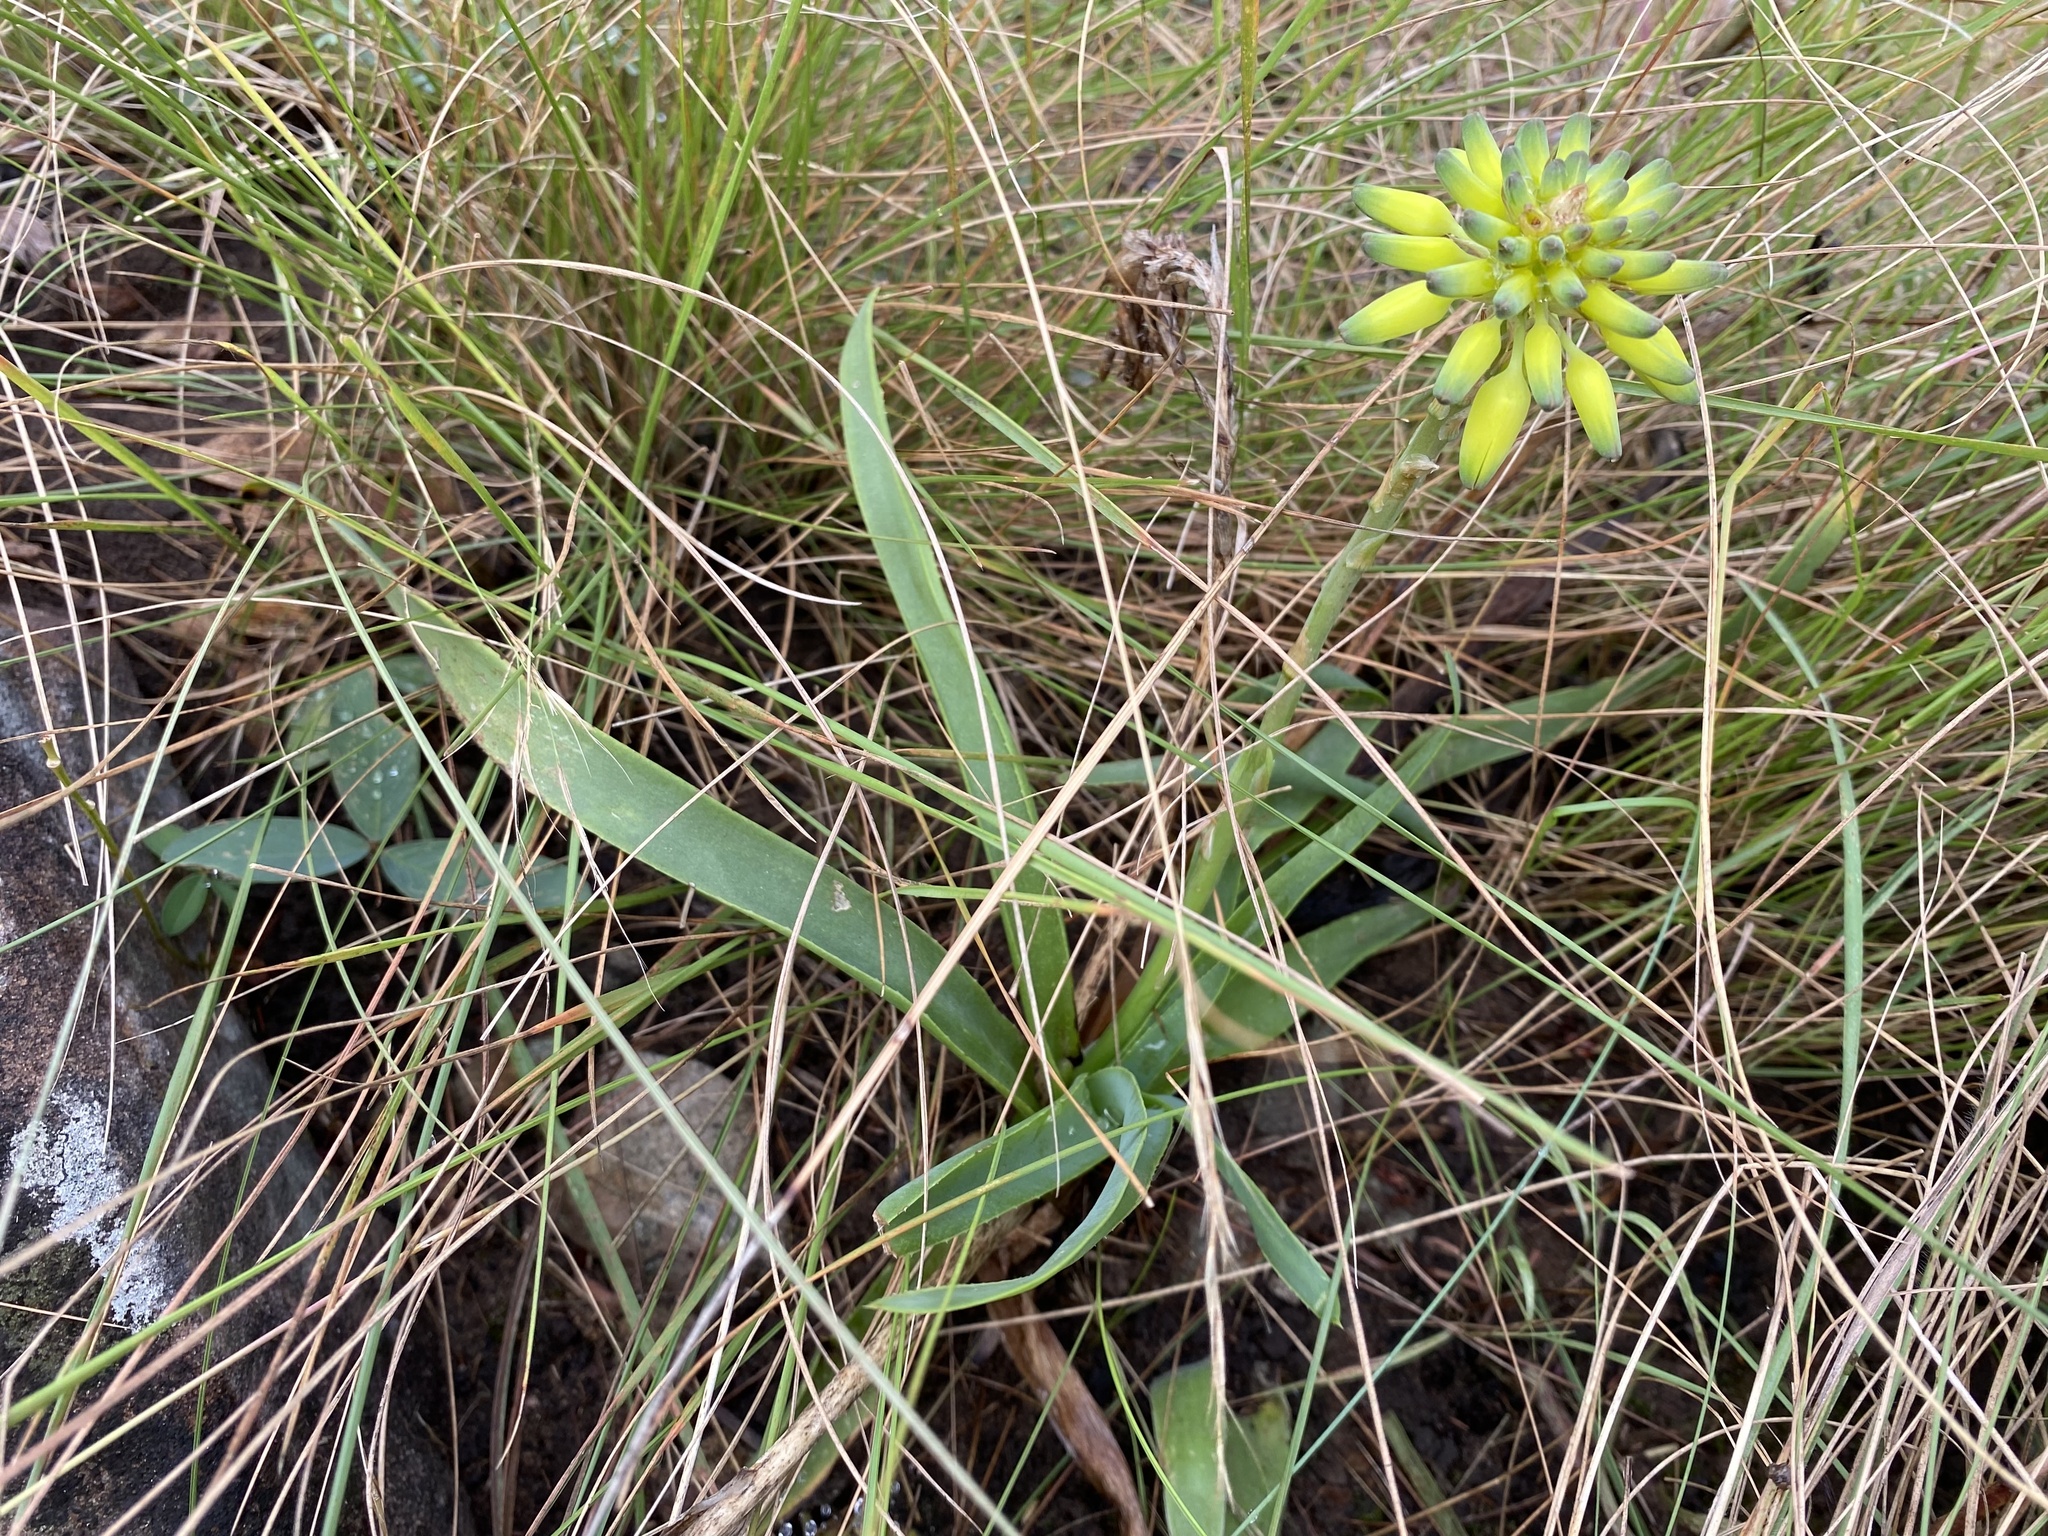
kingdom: Plantae
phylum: Tracheophyta
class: Liliopsida
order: Asparagales
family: Asphodelaceae
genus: Aloe
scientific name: Aloe ecklonis
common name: Ecklon's aloe
